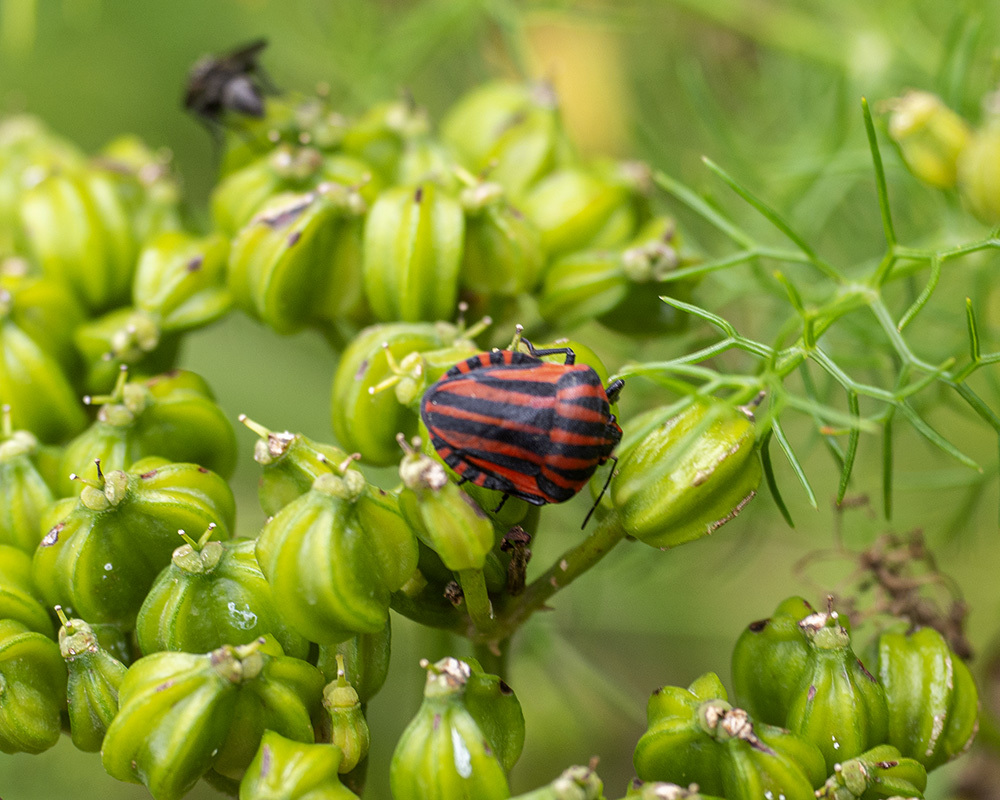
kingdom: Animalia
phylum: Arthropoda
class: Insecta
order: Hemiptera
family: Pentatomidae
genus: Graphosoma
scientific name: Graphosoma italicum
